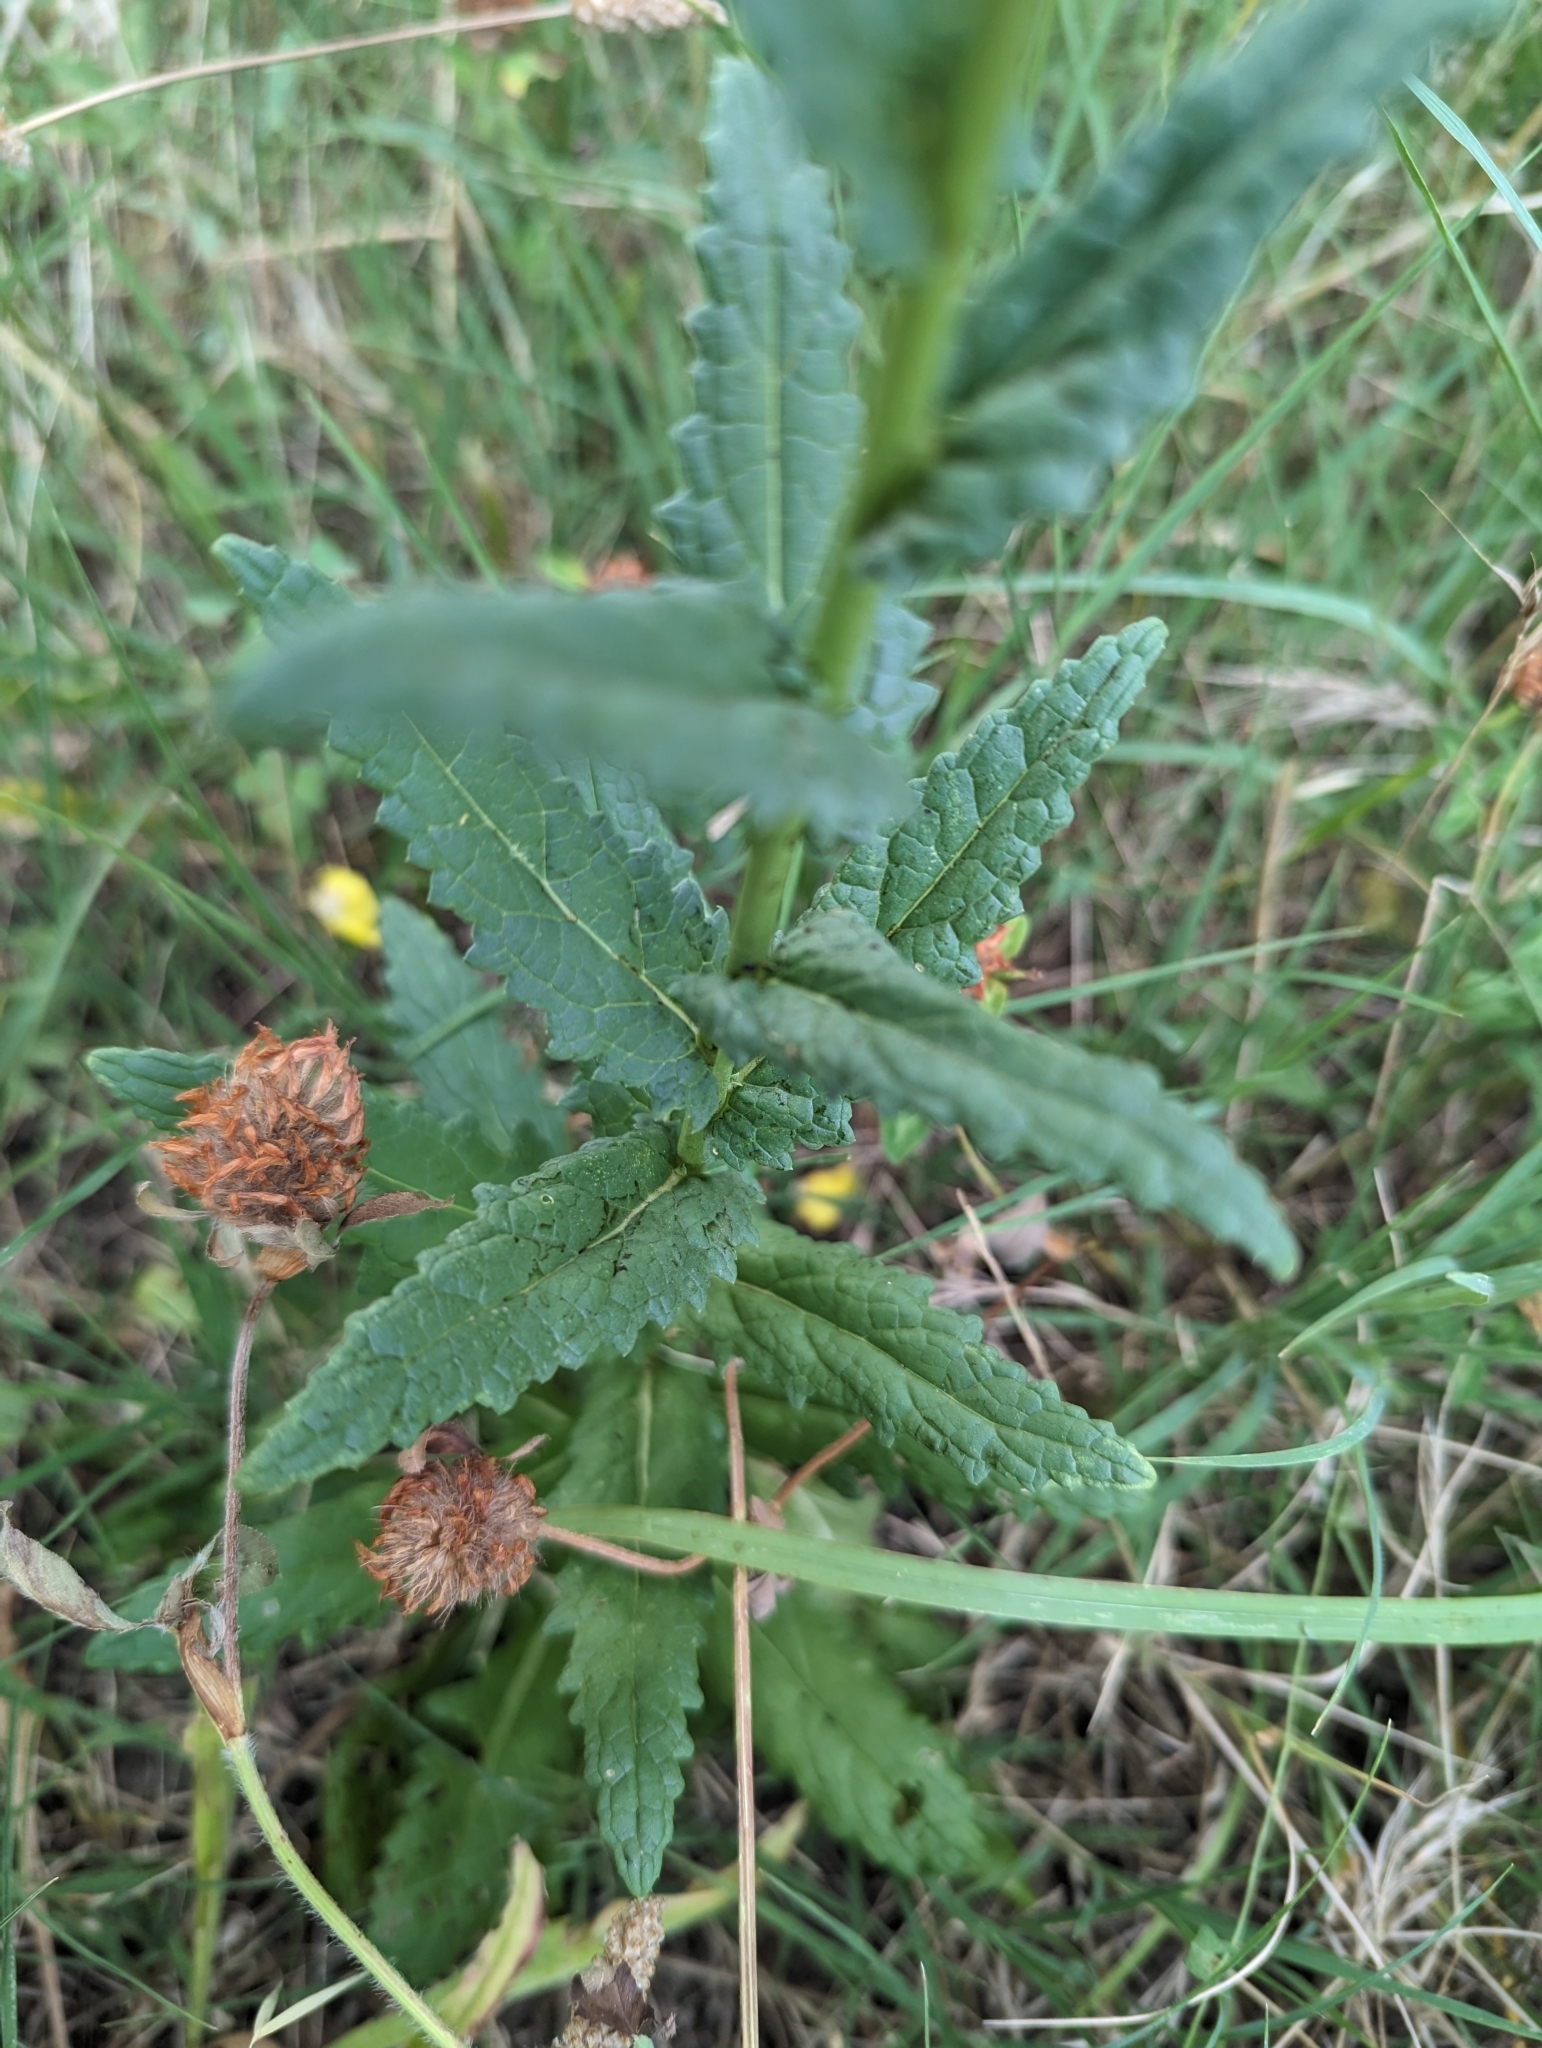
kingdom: Plantae
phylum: Tracheophyta
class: Magnoliopsida
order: Lamiales
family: Scrophulariaceae
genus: Verbascum
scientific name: Verbascum blattaria
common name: Moth mullein
